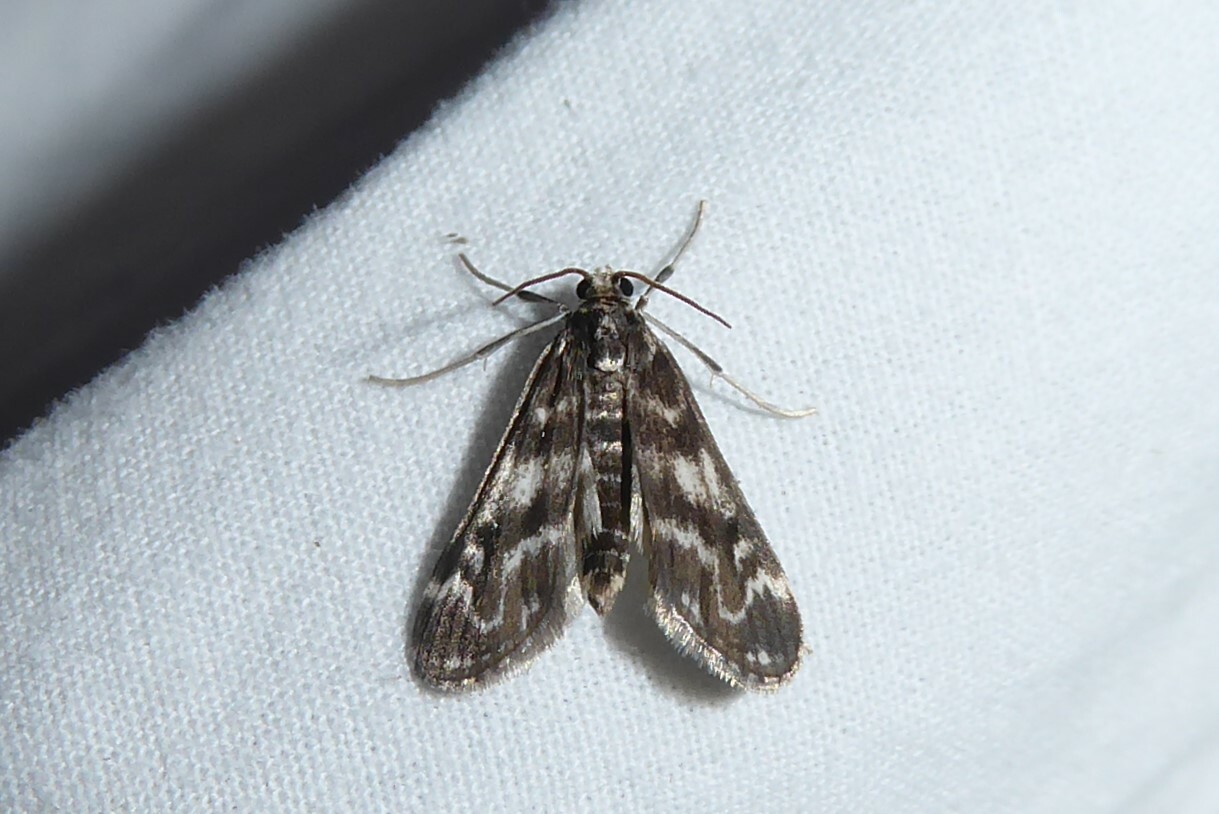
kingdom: Animalia
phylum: Arthropoda
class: Insecta
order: Lepidoptera
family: Crambidae
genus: Hygraula
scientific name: Hygraula nitens
